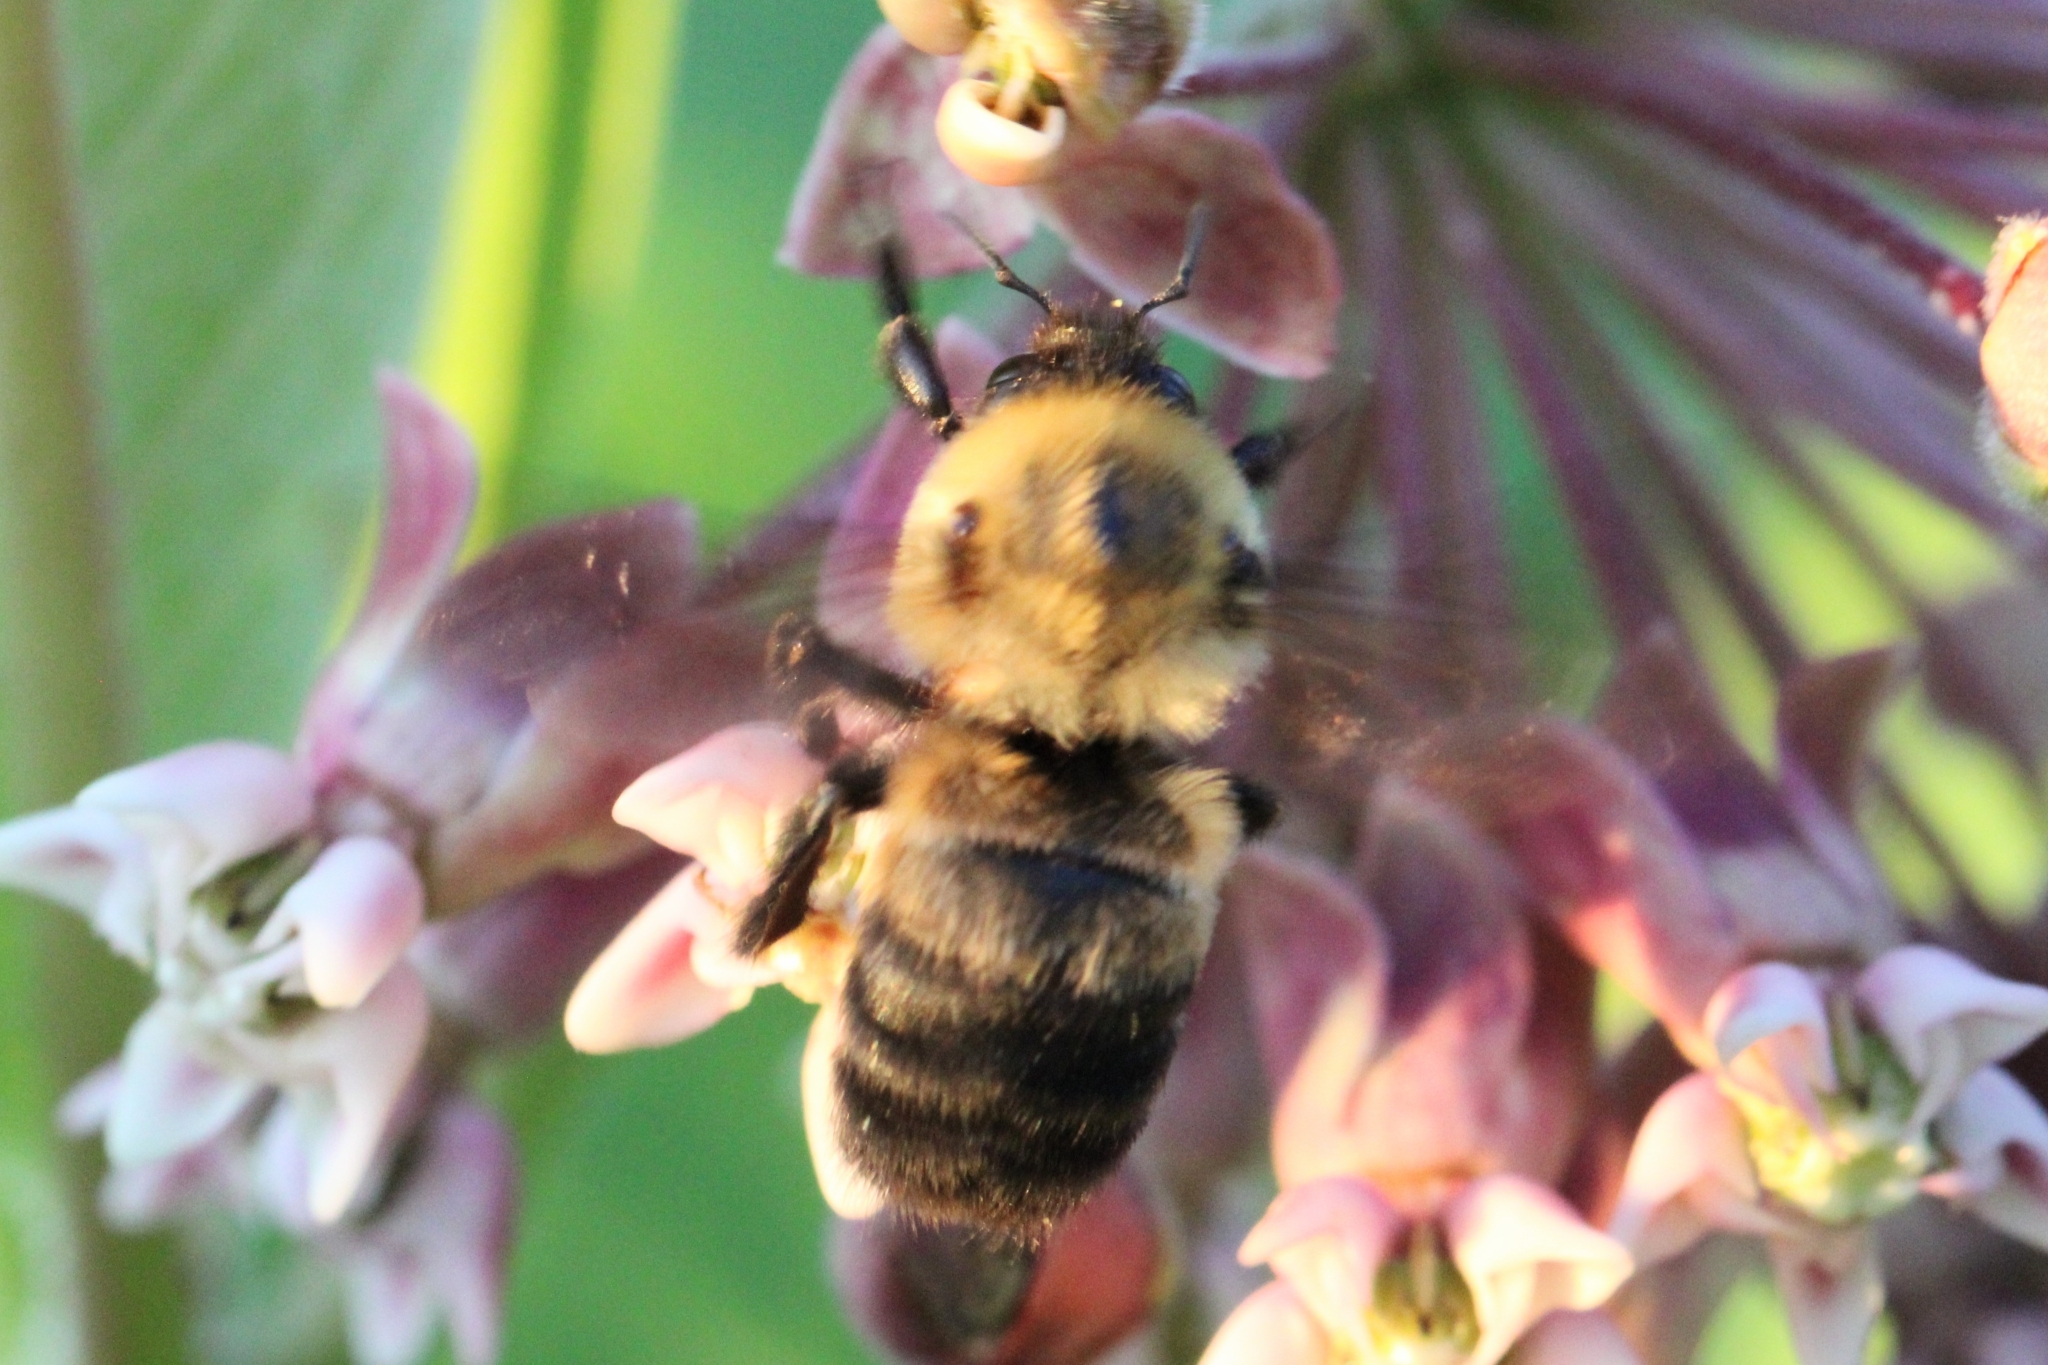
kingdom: Animalia
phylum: Arthropoda
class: Insecta
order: Hymenoptera
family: Apidae
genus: Bombus
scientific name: Bombus griseocollis
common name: Brown-belted bumble bee
